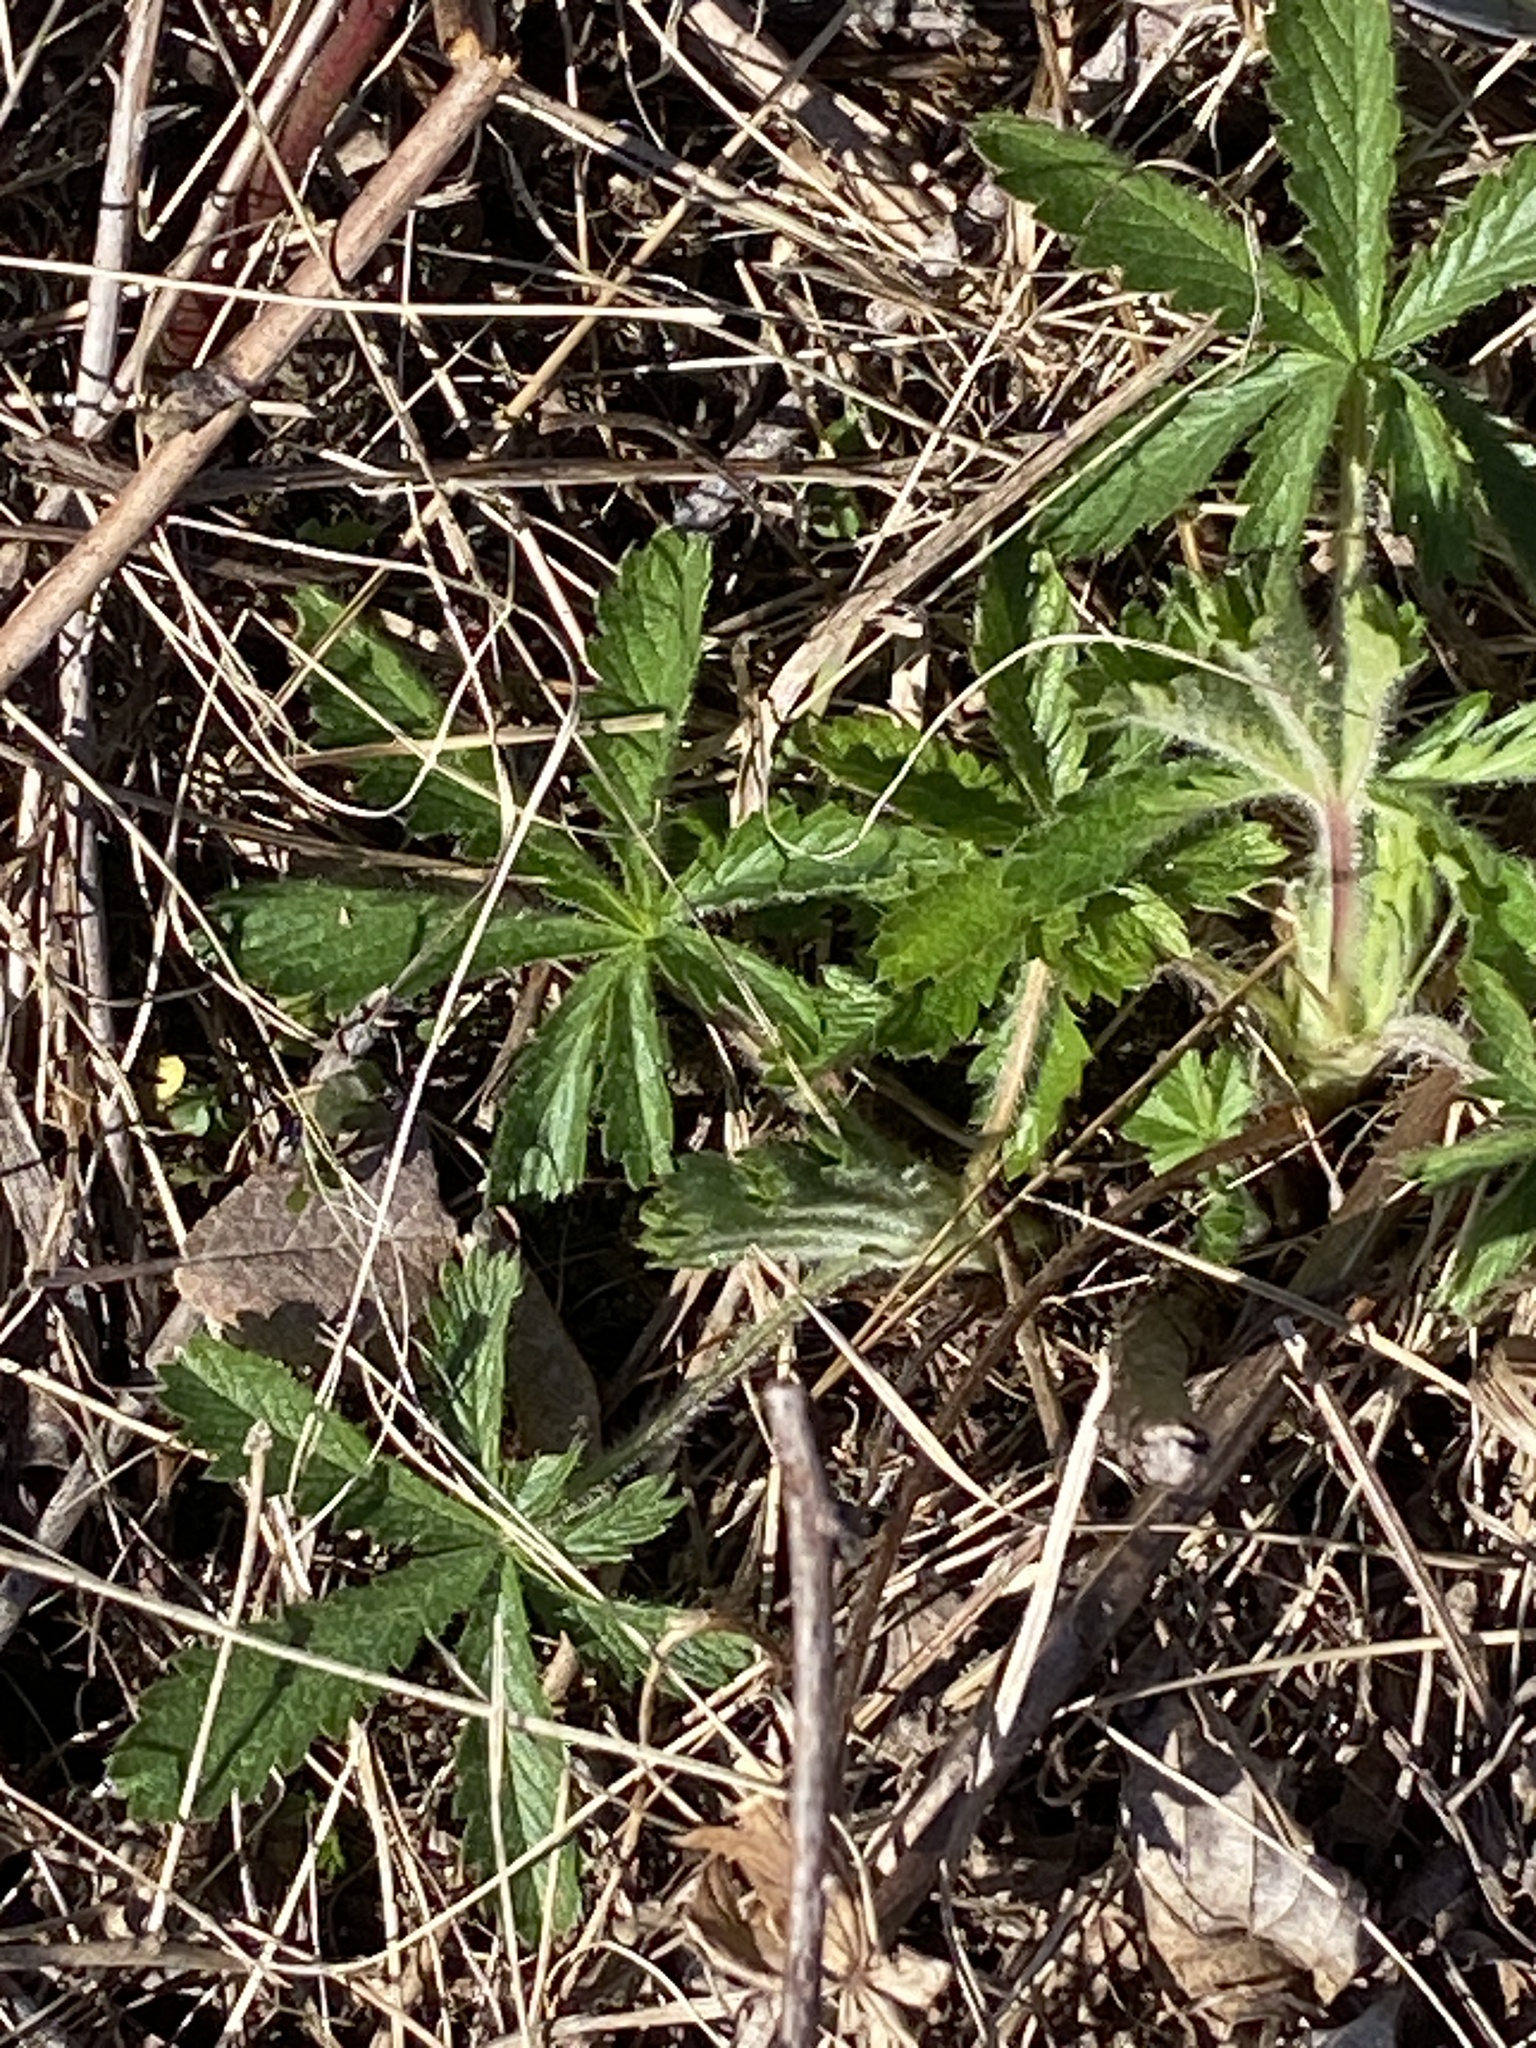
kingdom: Plantae
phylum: Tracheophyta
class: Magnoliopsida
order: Rosales
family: Rosaceae
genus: Potentilla
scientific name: Potentilla recta
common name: Sulphur cinquefoil
